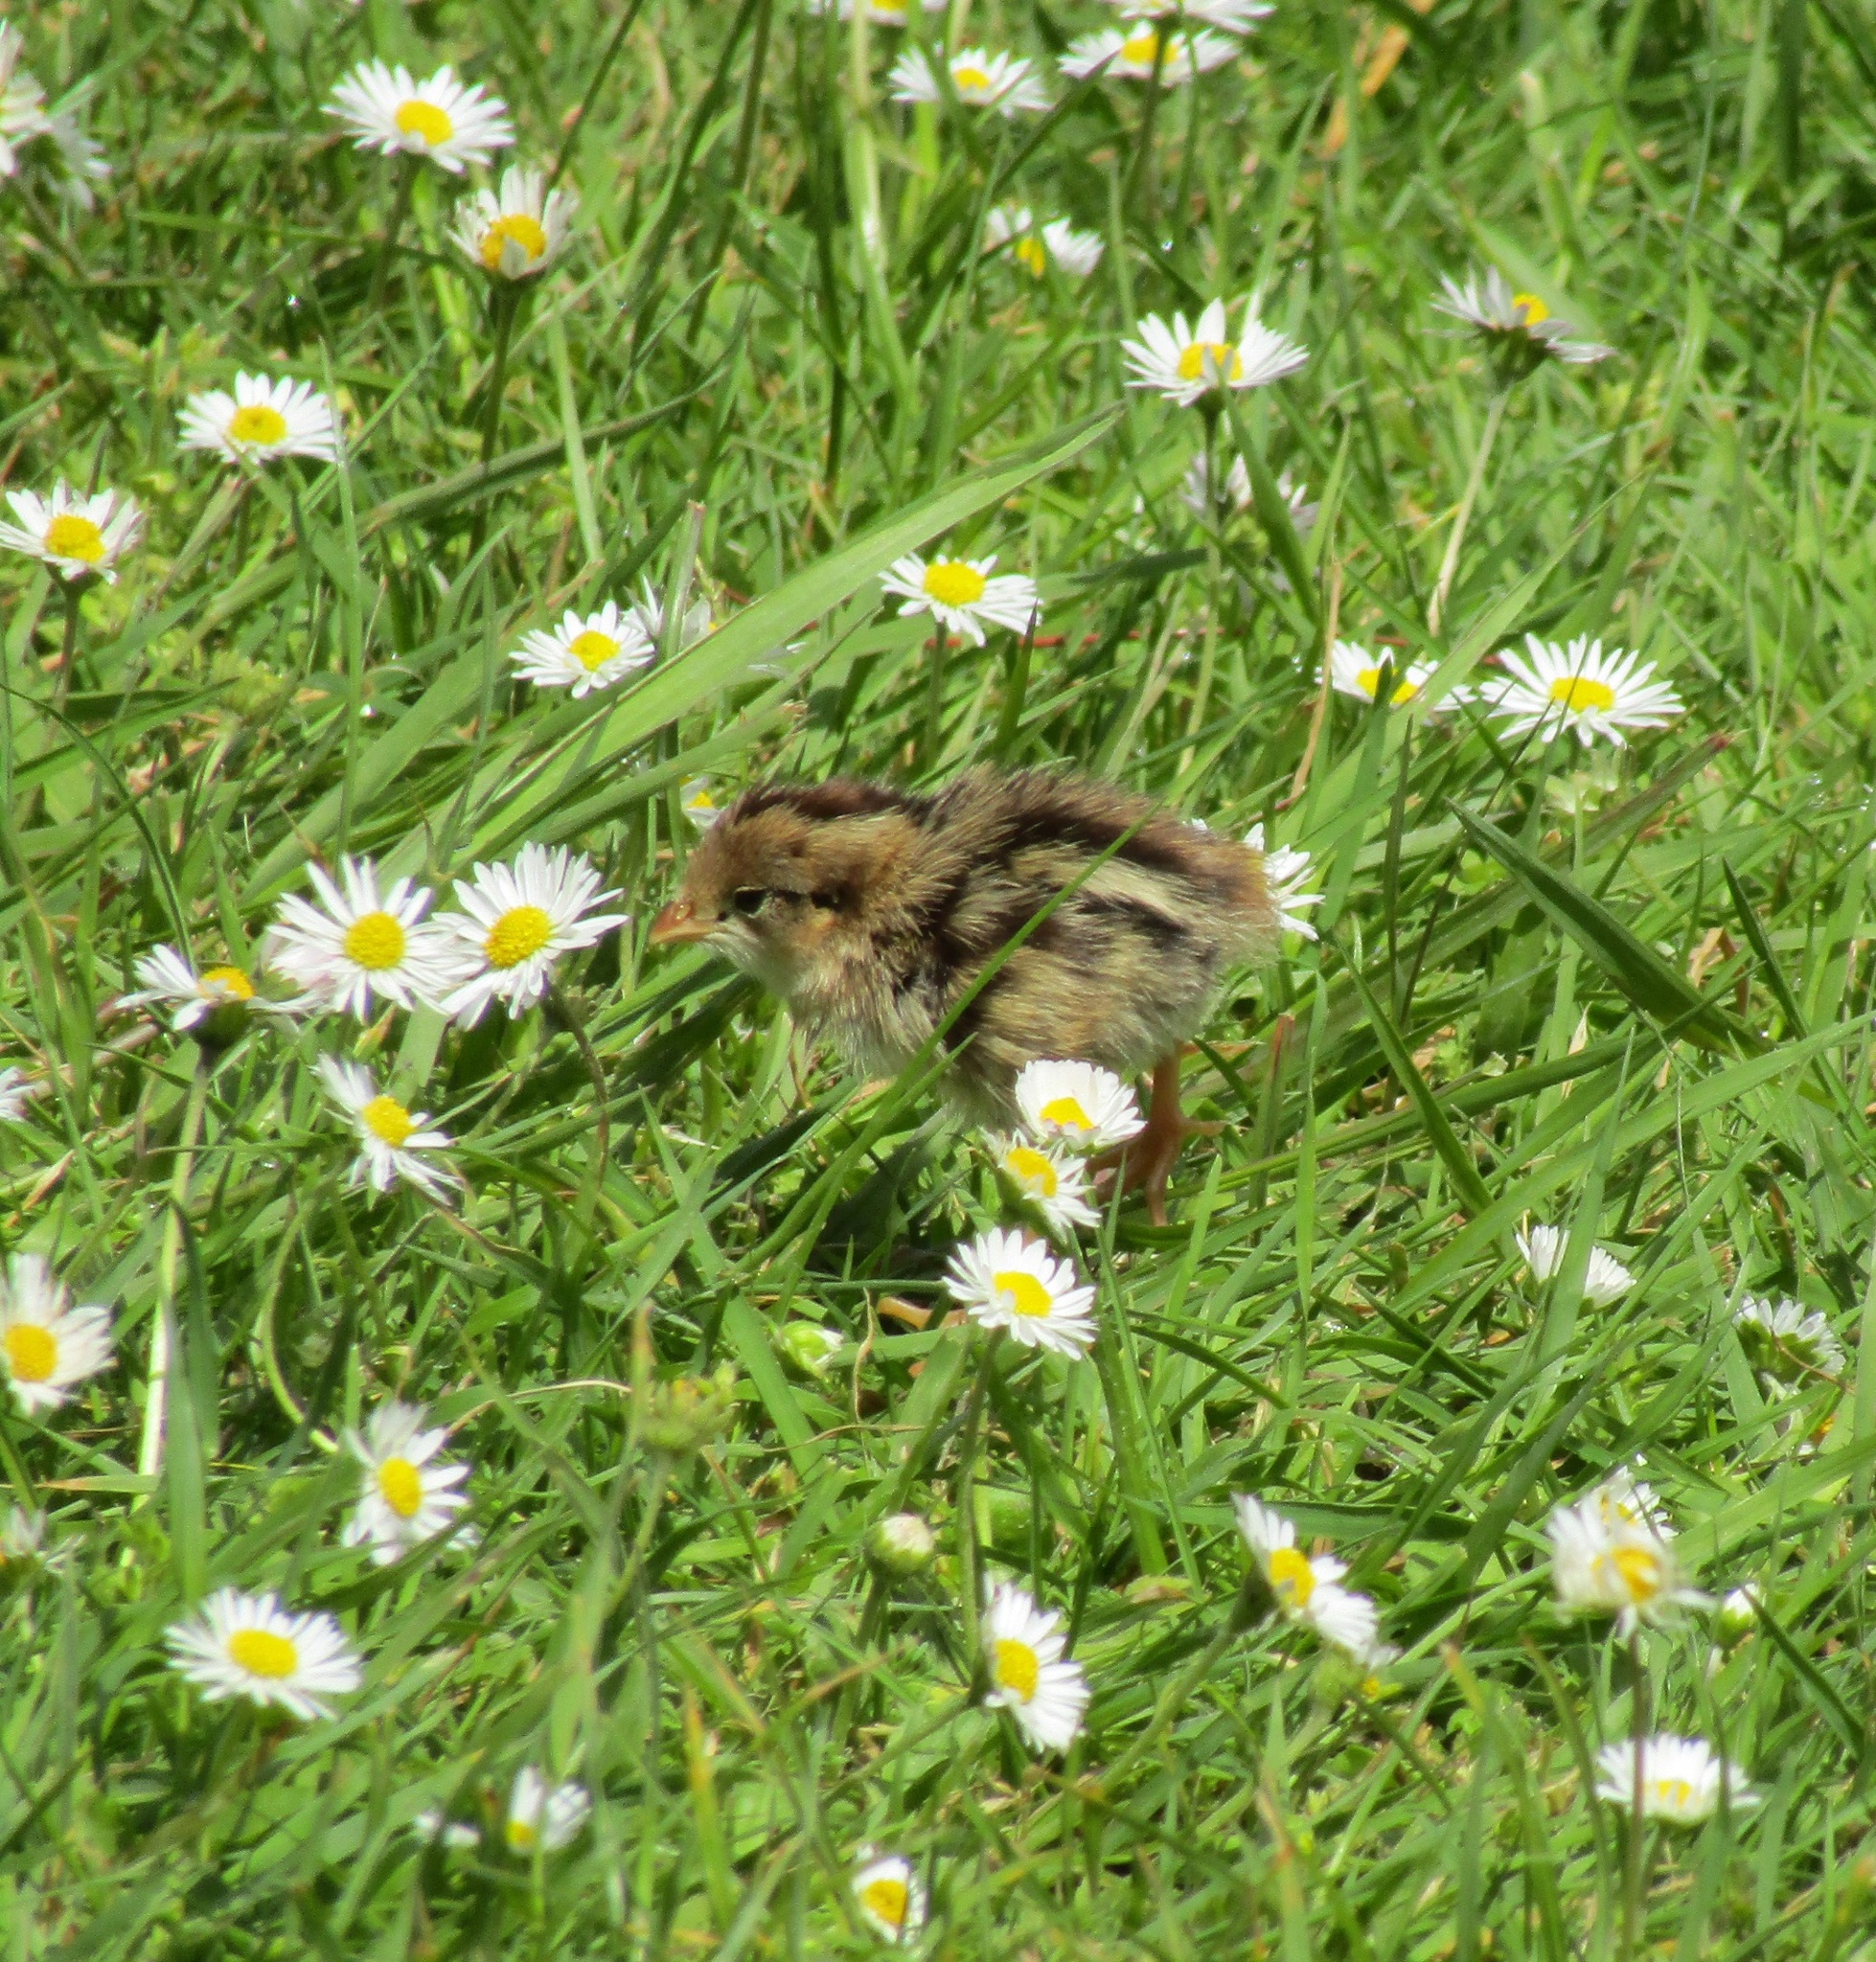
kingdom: Animalia
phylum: Chordata
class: Aves
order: Galliformes
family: Odontophoridae
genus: Callipepla
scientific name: Callipepla californica
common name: California quail
